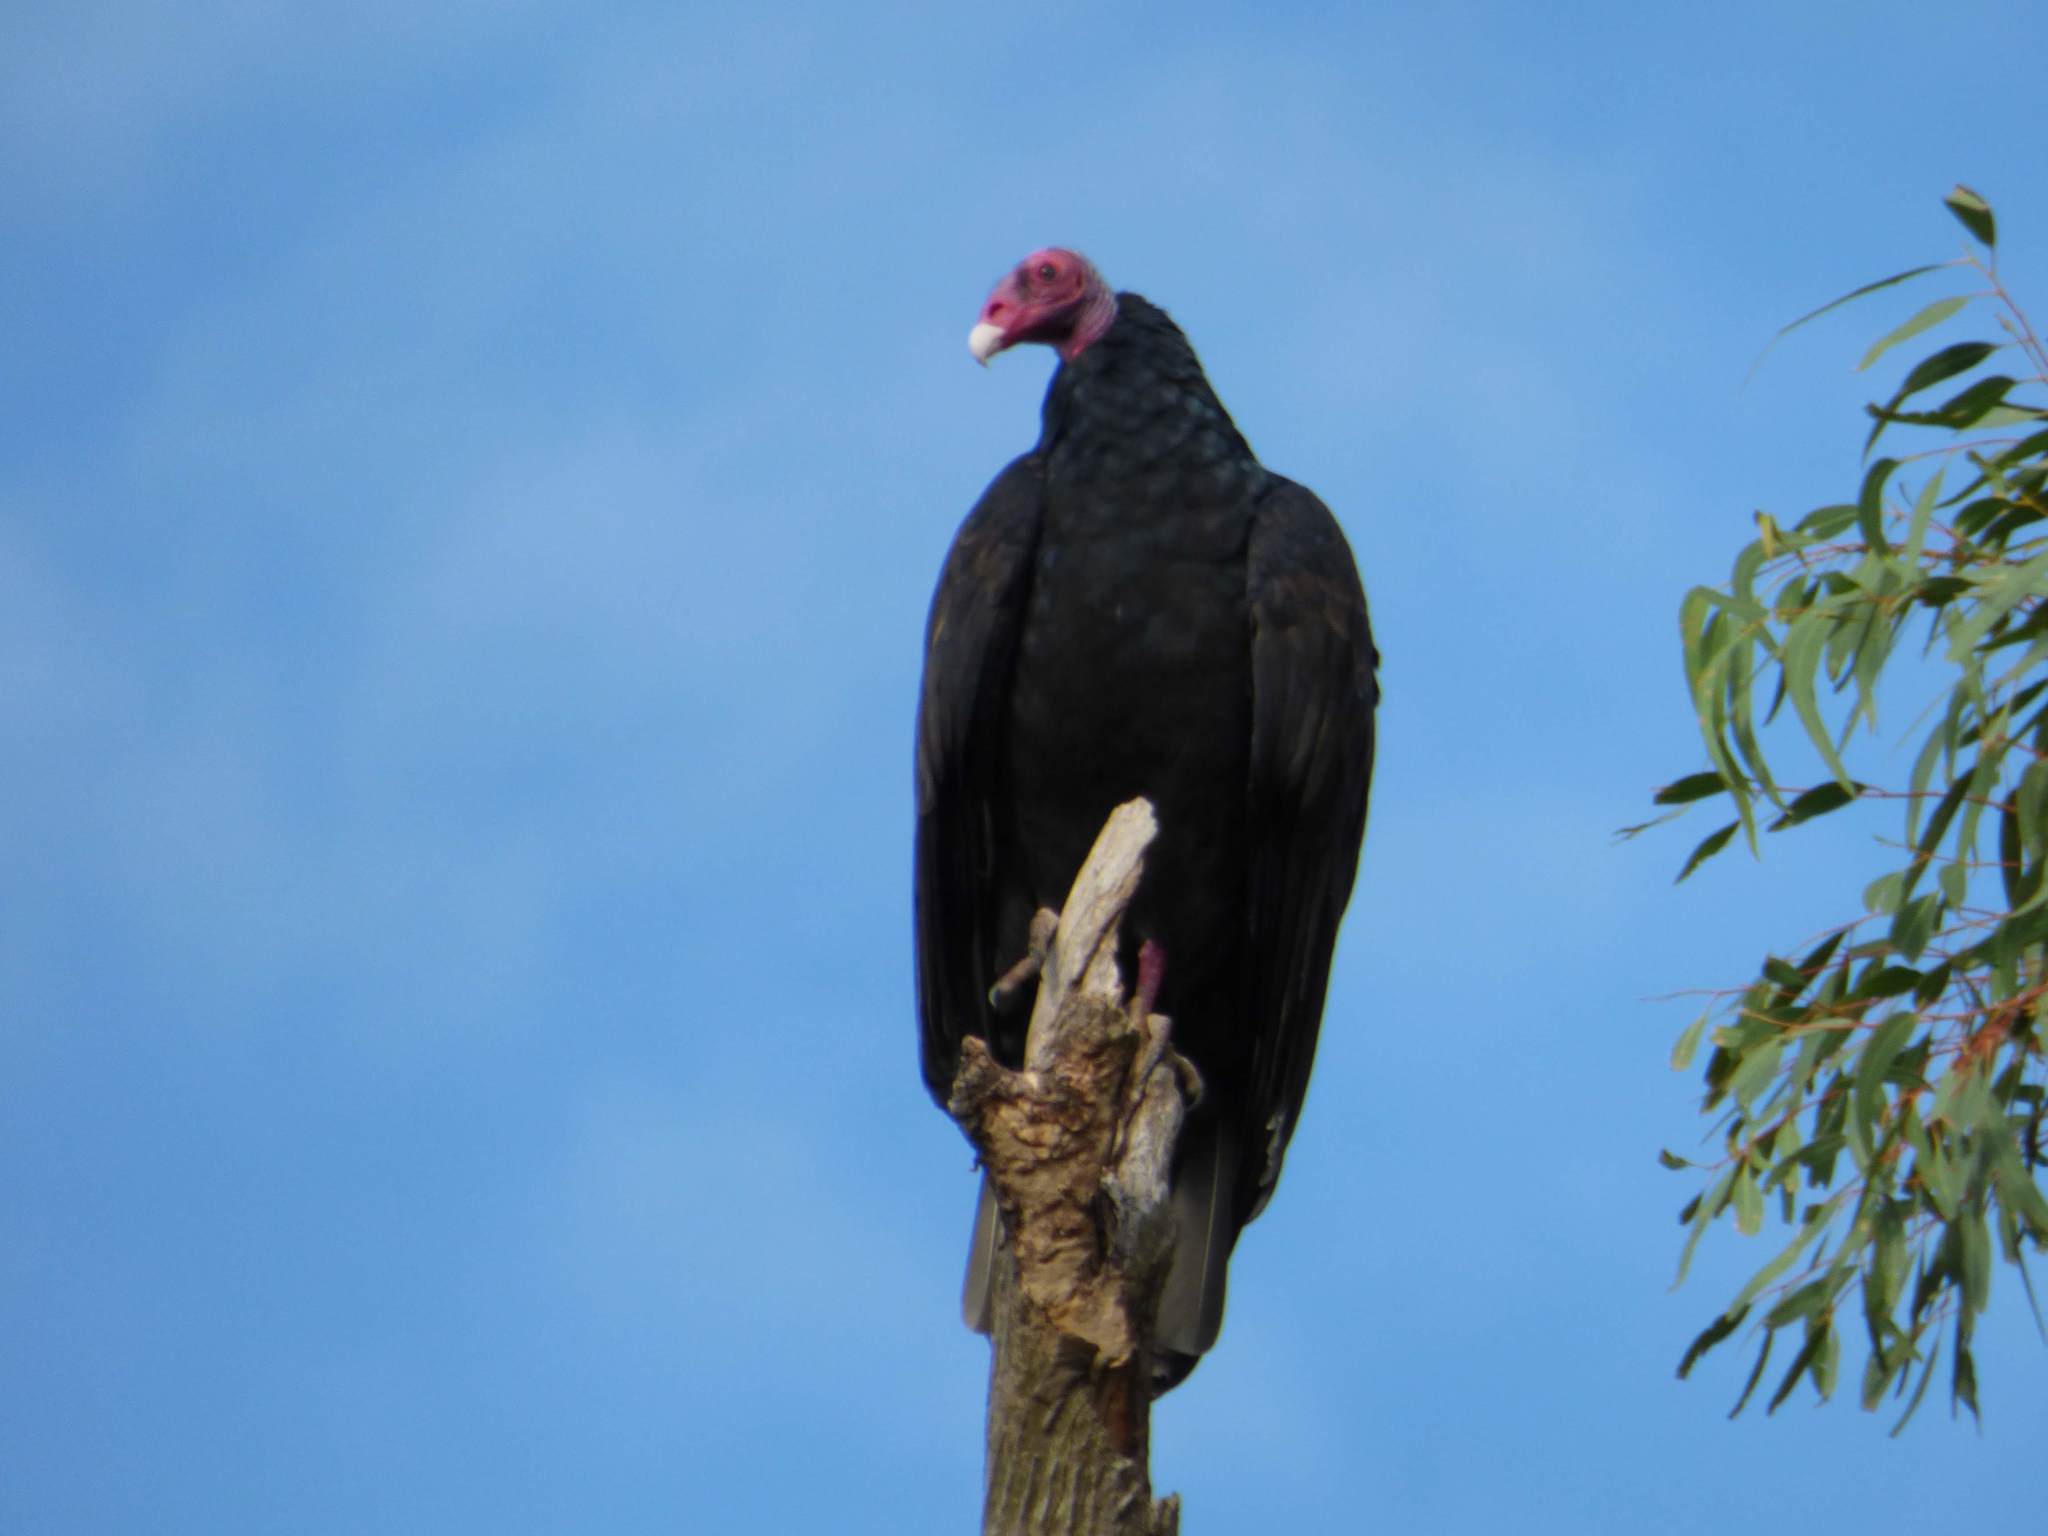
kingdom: Animalia
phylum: Chordata
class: Aves
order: Accipitriformes
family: Cathartidae
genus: Cathartes
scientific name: Cathartes aura
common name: Turkey vulture
